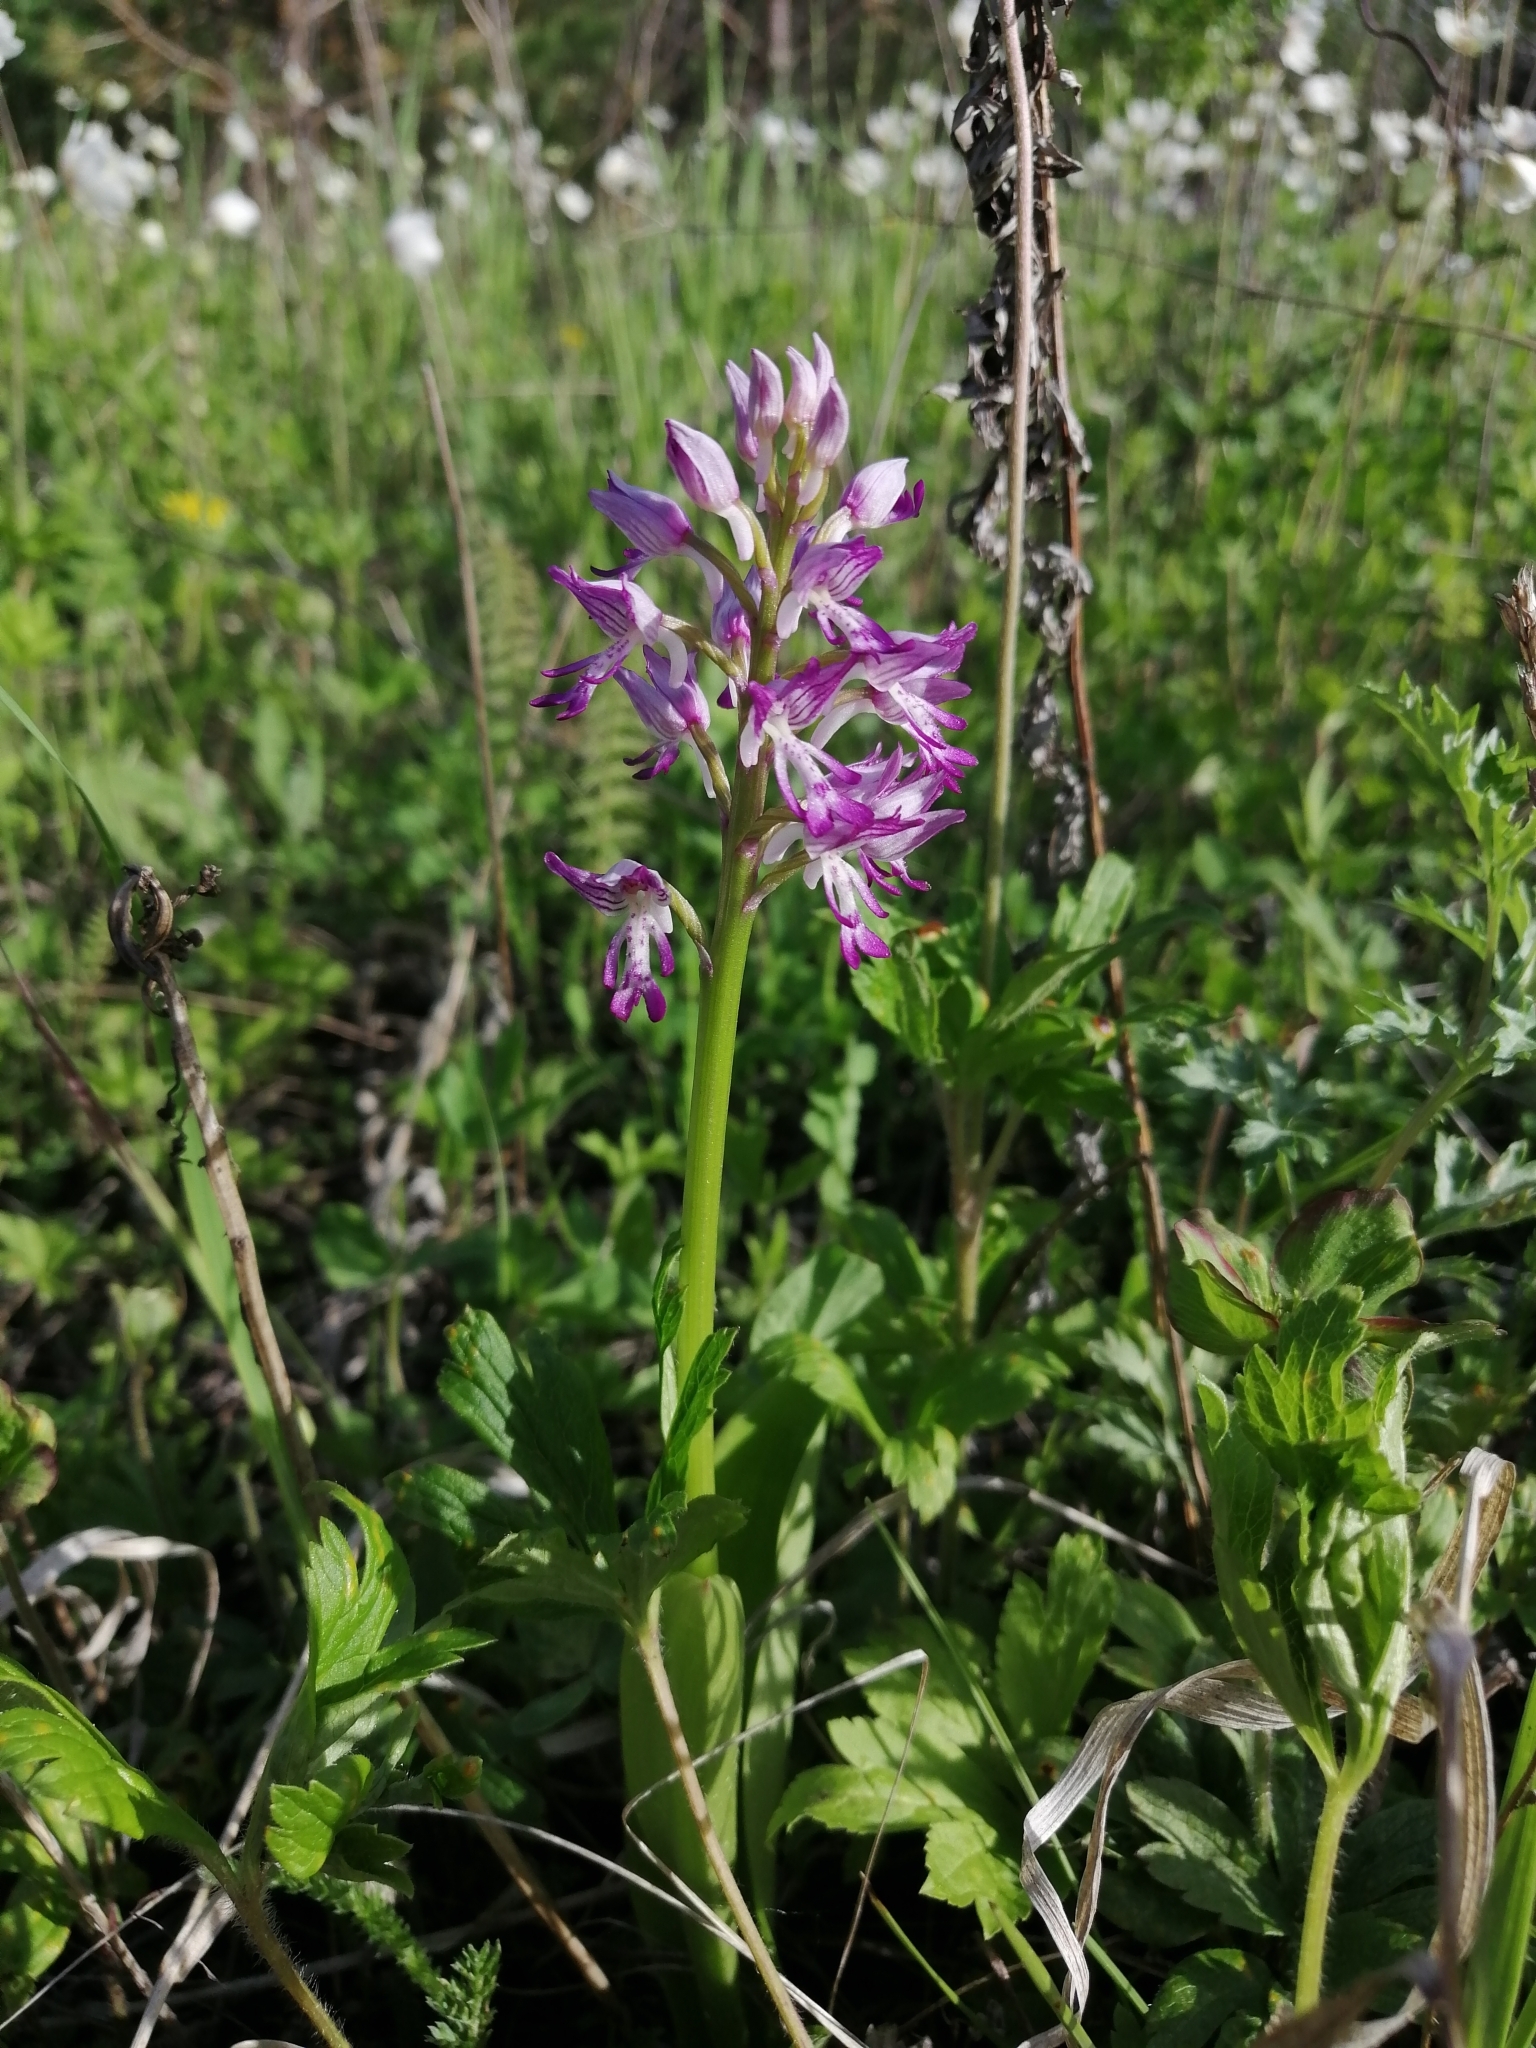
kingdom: Plantae
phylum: Tracheophyta
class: Liliopsida
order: Asparagales
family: Orchidaceae
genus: Orchis
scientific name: Orchis militaris
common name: Military orchid
